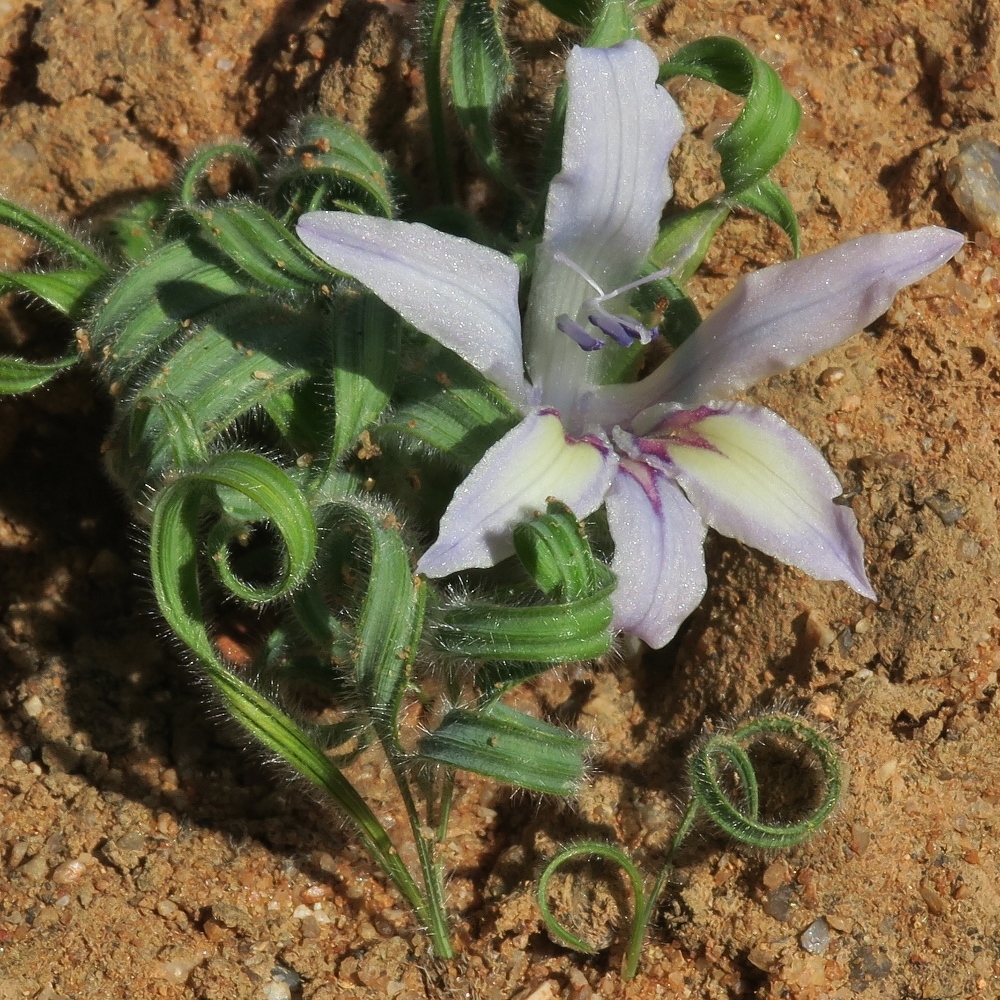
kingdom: Plantae
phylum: Tracheophyta
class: Liliopsida
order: Asparagales
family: Iridaceae
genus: Babiana
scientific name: Babiana torta
